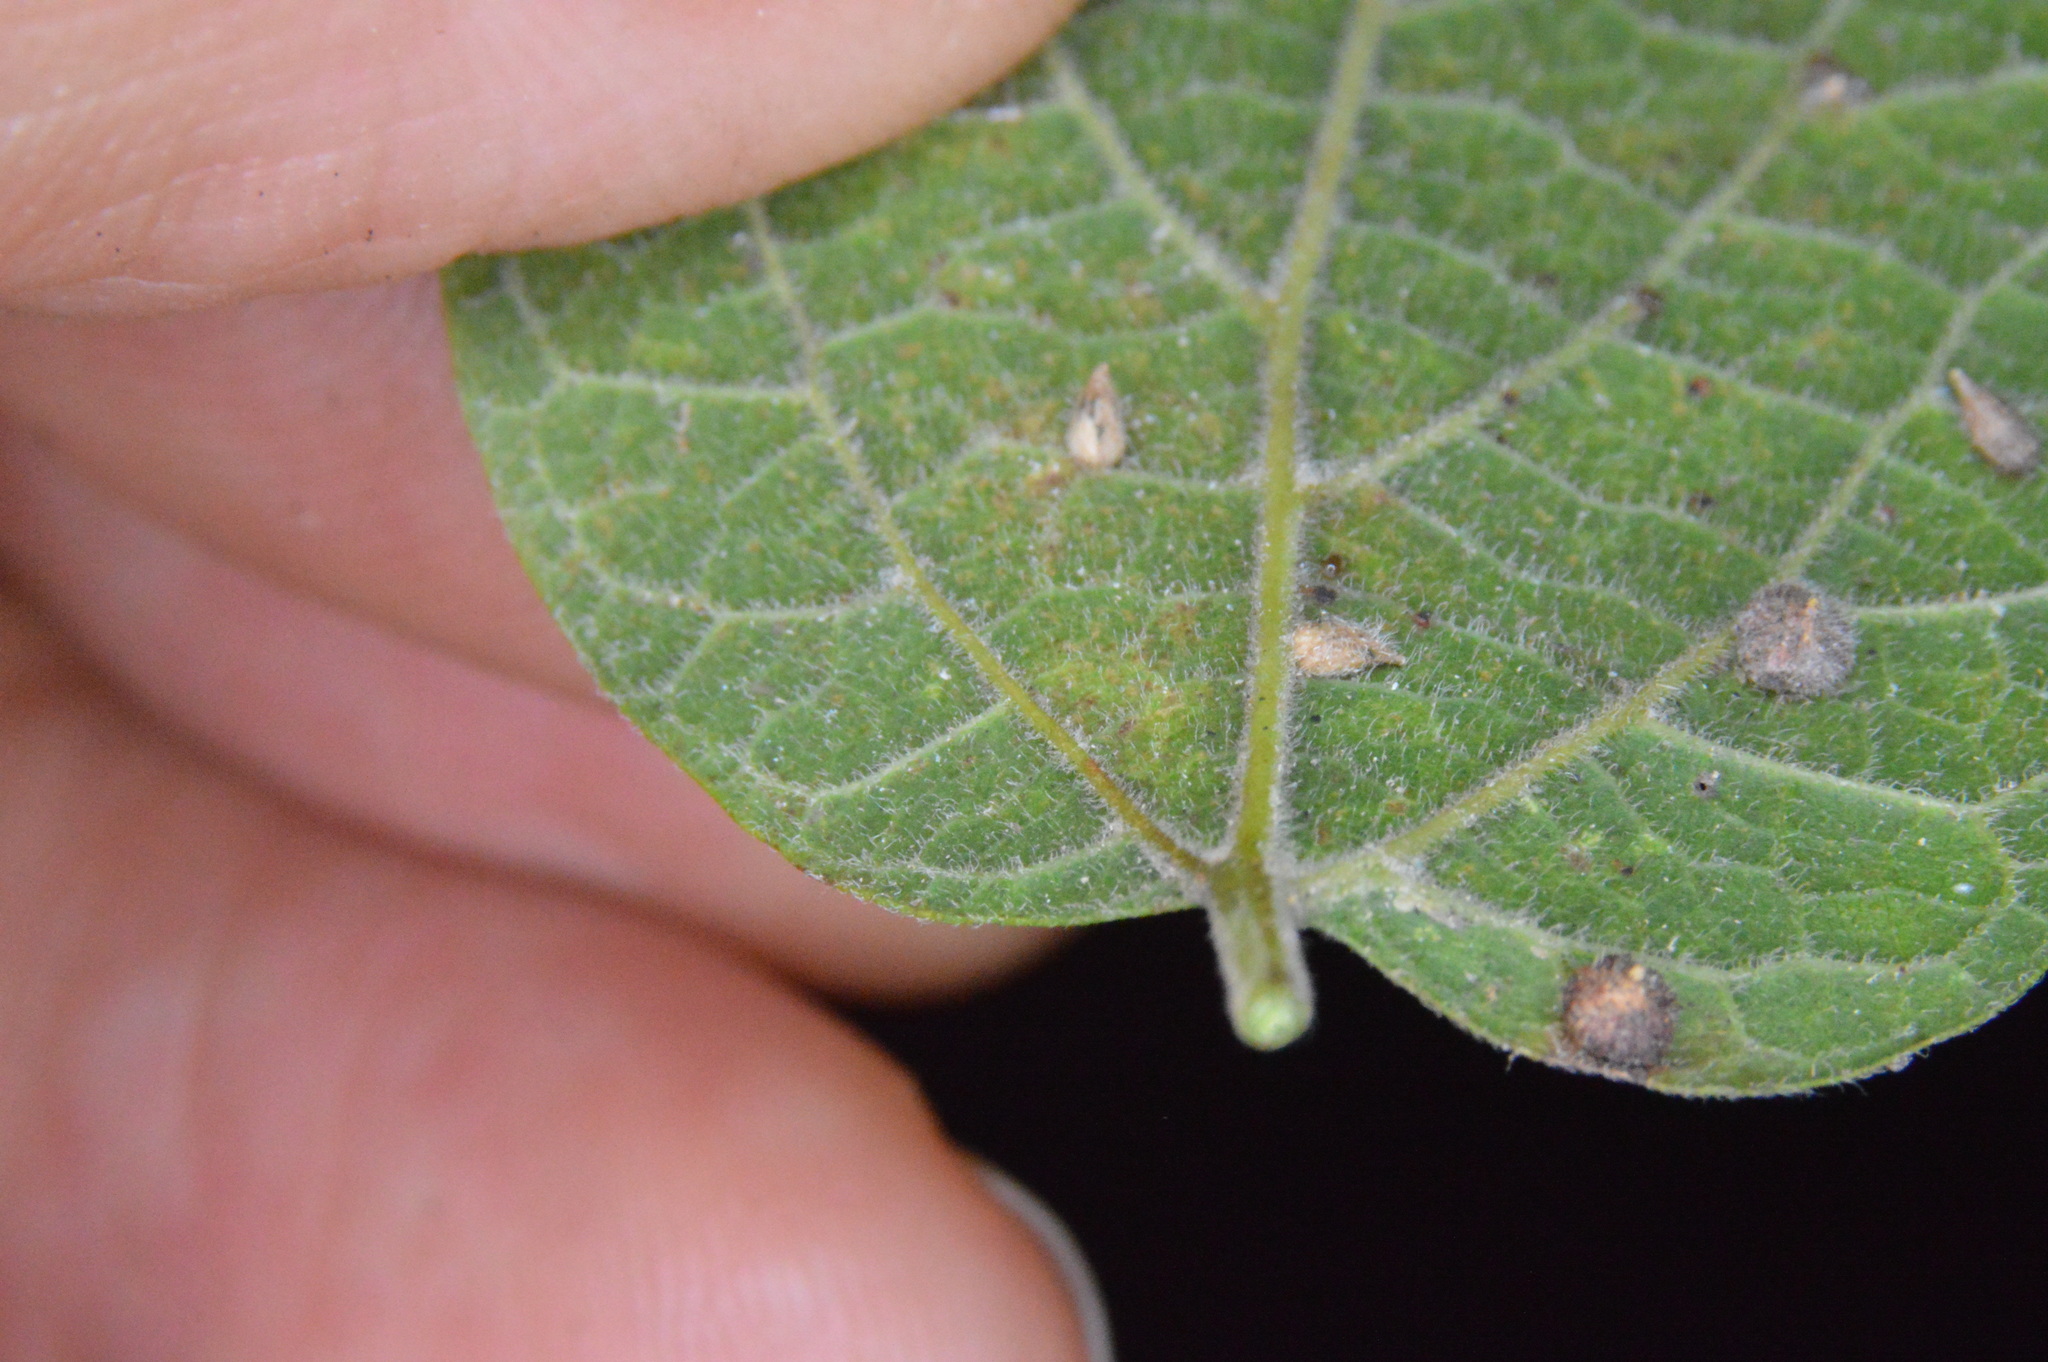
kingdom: Animalia
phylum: Arthropoda
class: Insecta
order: Diptera
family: Cecidomyiidae
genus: Celticecis
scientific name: Celticecis supina
